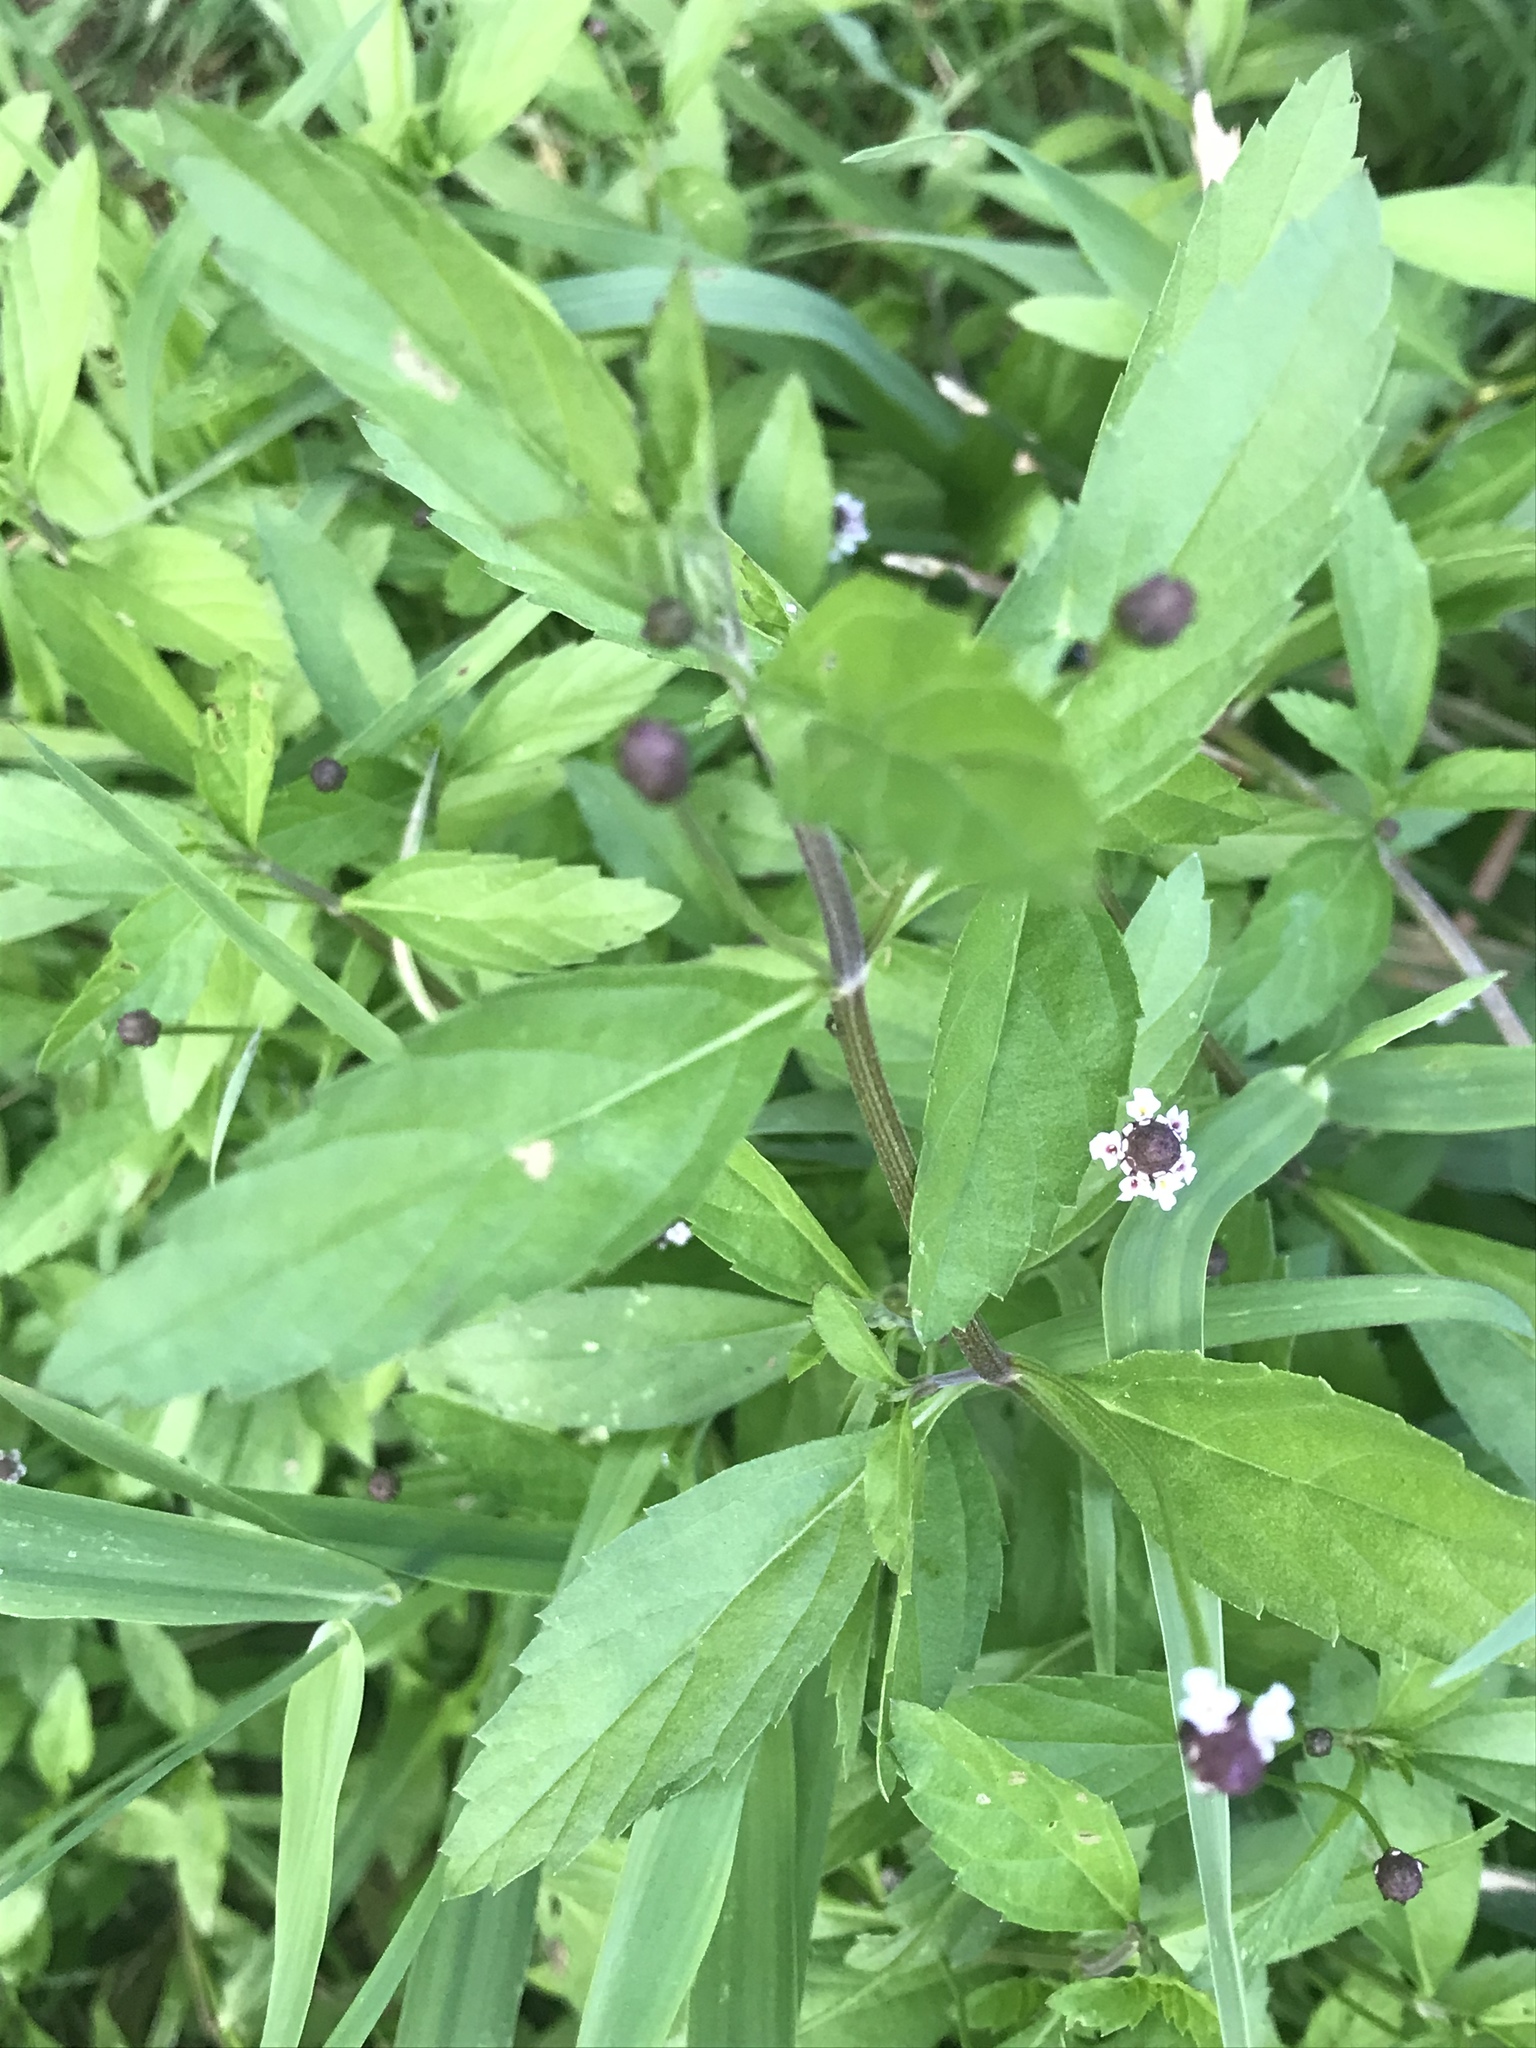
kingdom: Plantae
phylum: Tracheophyta
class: Magnoliopsida
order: Lamiales
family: Verbenaceae
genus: Phyla
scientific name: Phyla lanceolata
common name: Northern fogfruit
